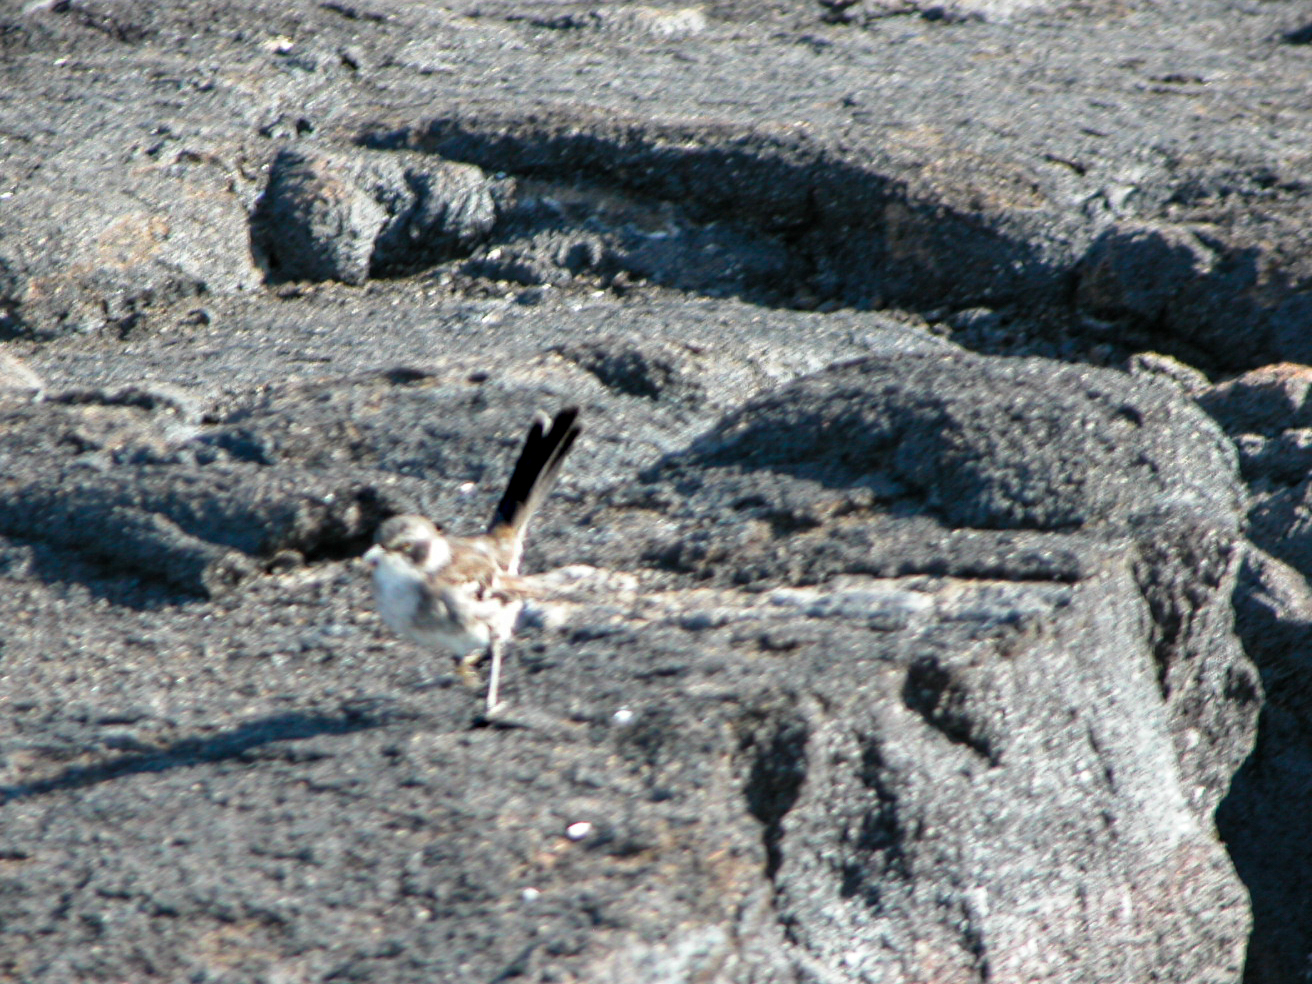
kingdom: Animalia
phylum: Chordata
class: Aves
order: Passeriformes
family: Mimidae
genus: Mimus
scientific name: Mimus parvulus
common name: Galapagos mockingbird
